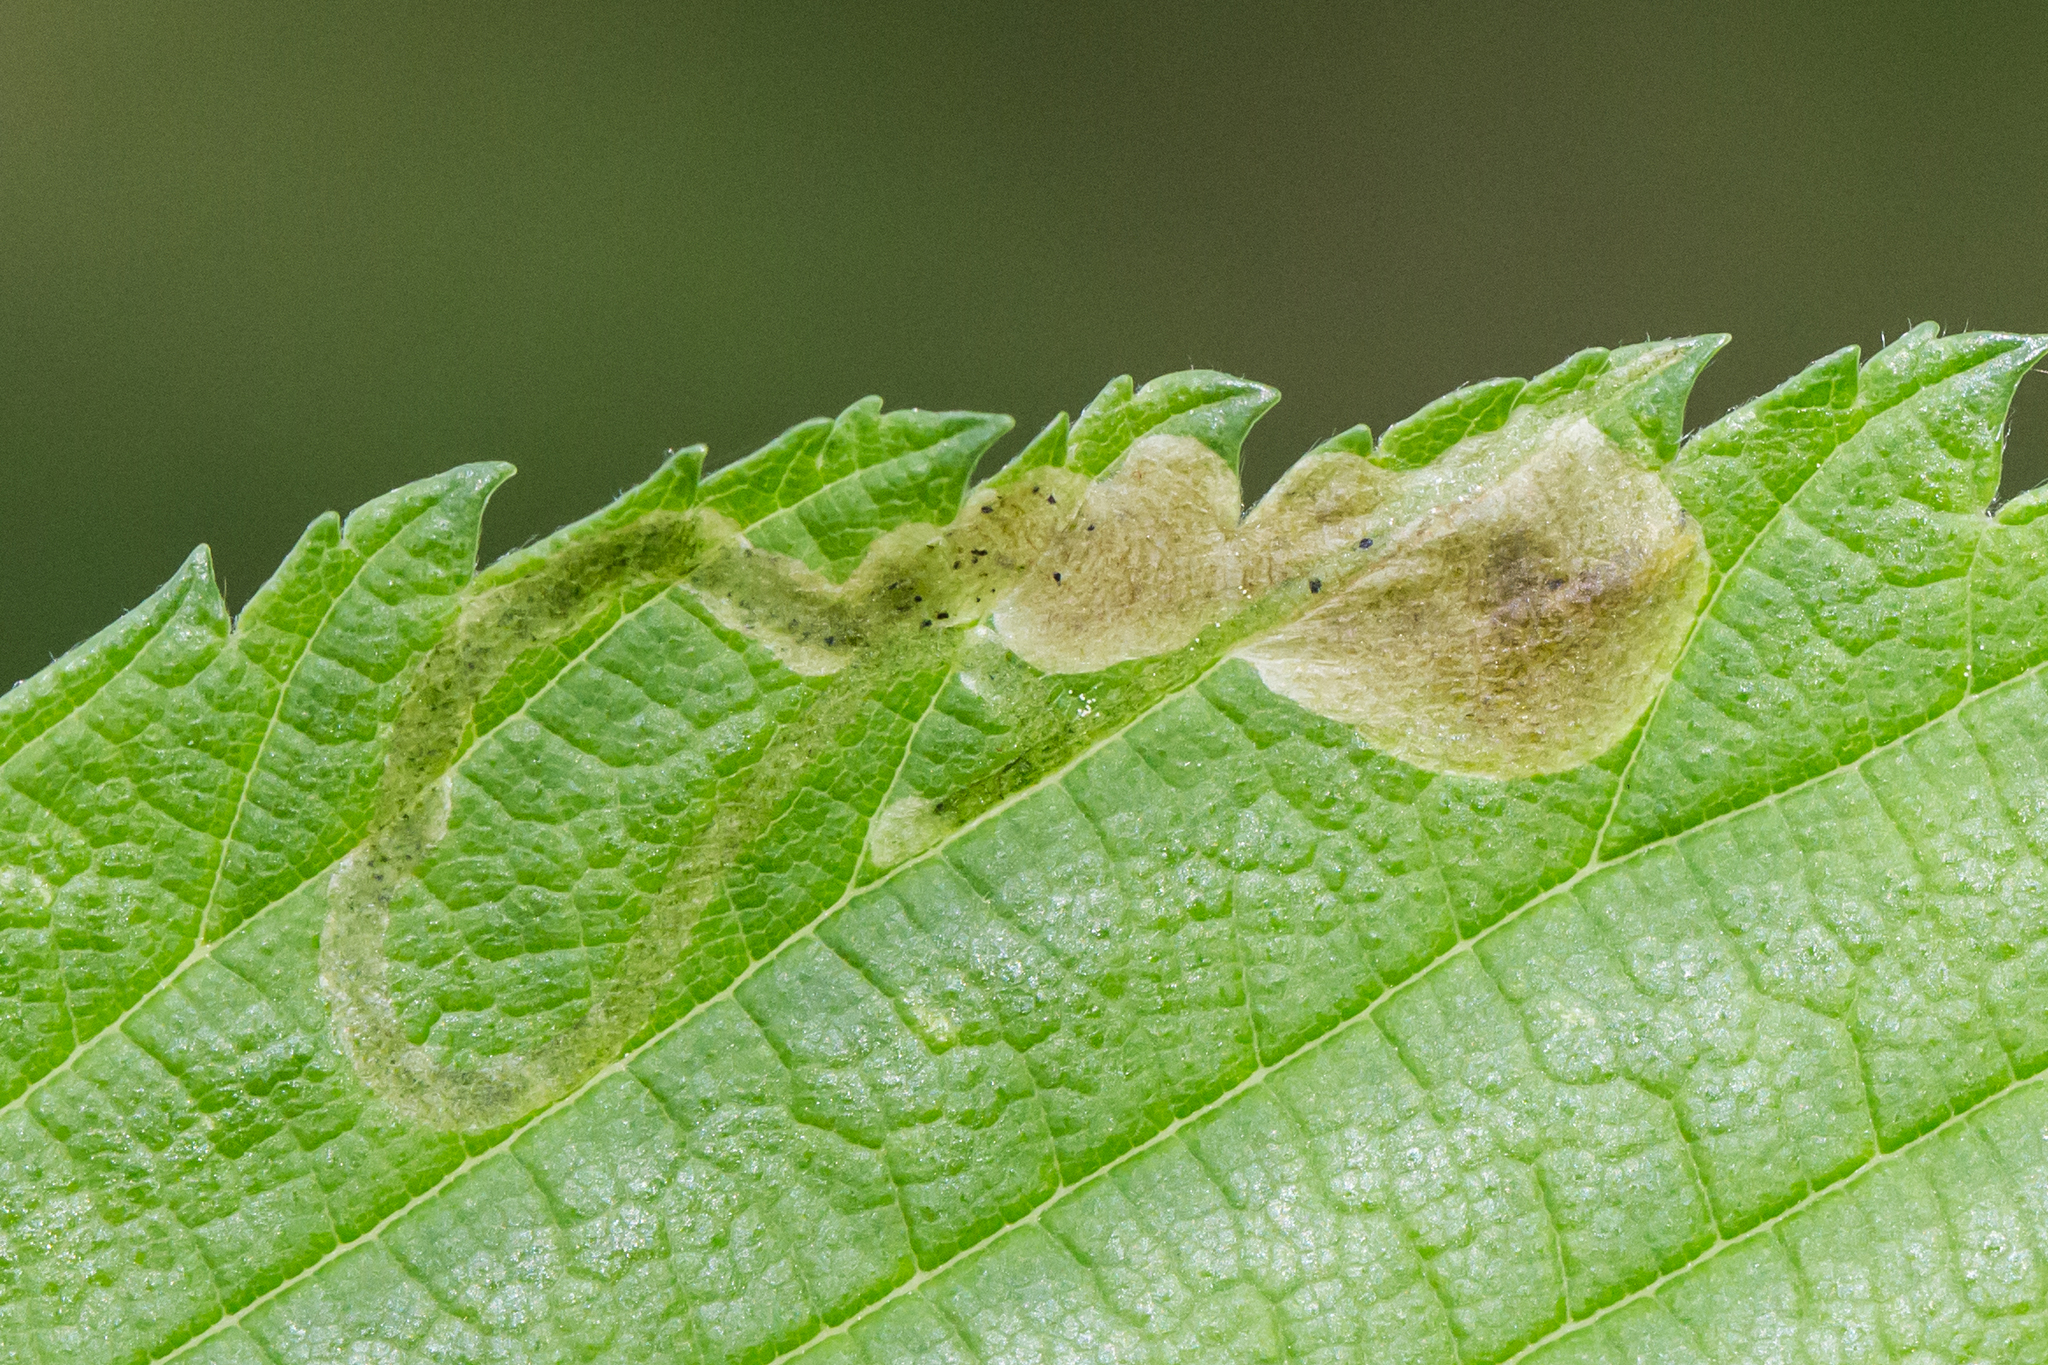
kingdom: Animalia
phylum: Arthropoda
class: Insecta
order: Diptera
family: Agromyzidae
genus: Agromyza
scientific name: Agromyza aristata
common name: Elm agromyzid leafminer
